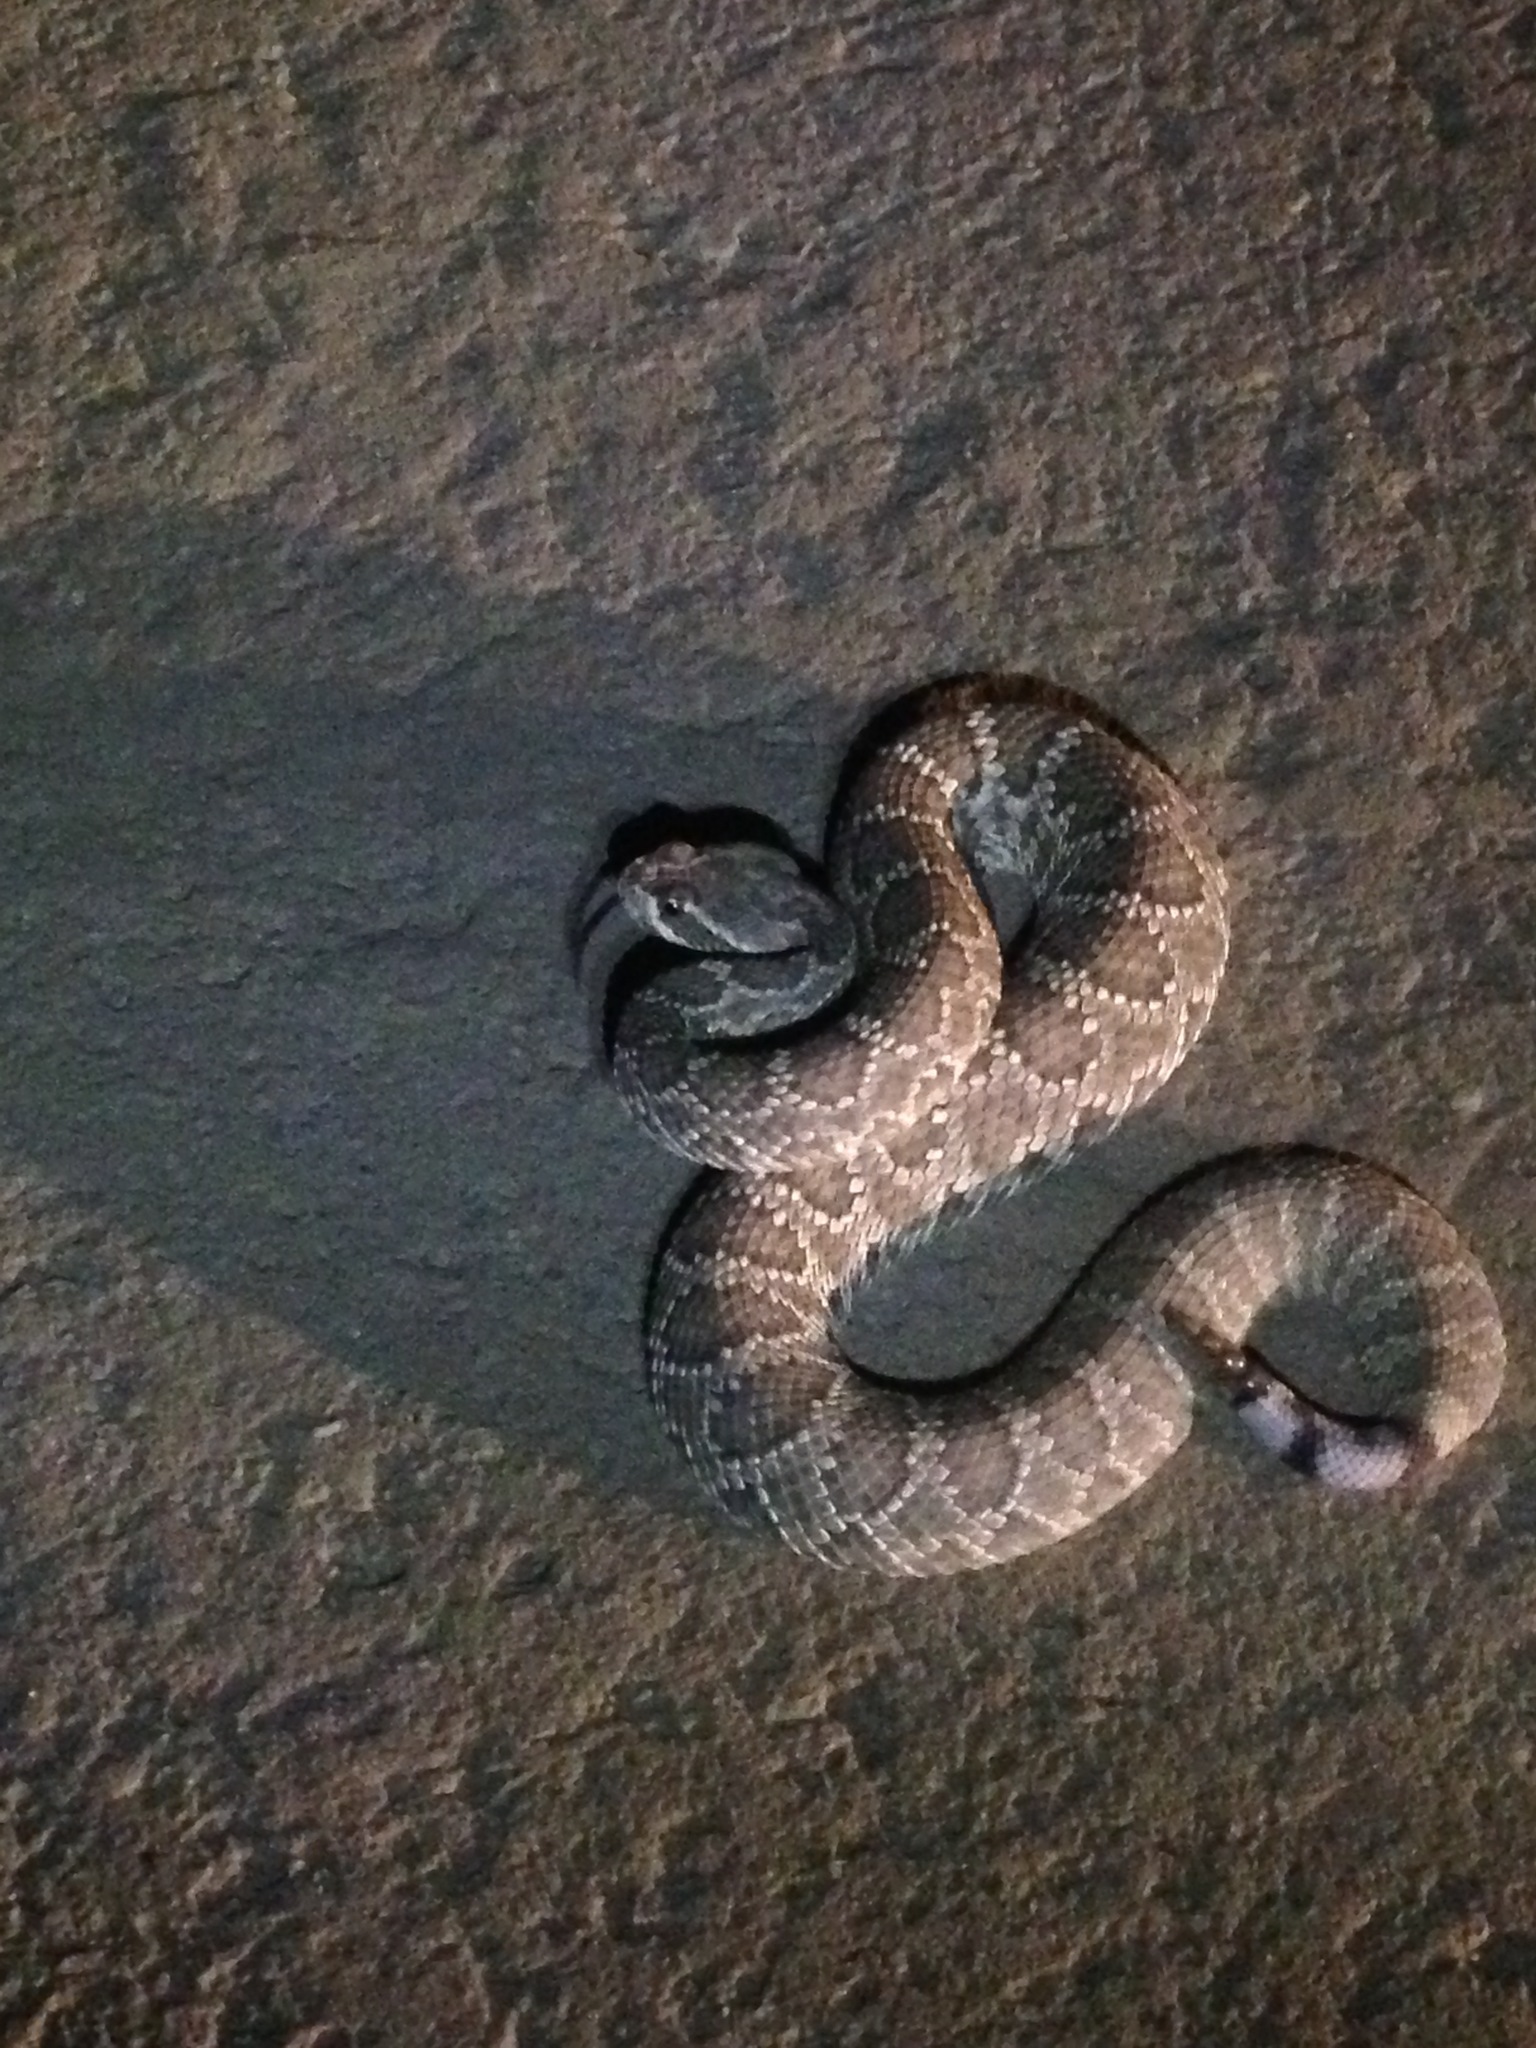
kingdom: Animalia
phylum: Chordata
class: Squamata
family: Viperidae
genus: Crotalus
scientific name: Crotalus scutulatus
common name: Scutulatus
